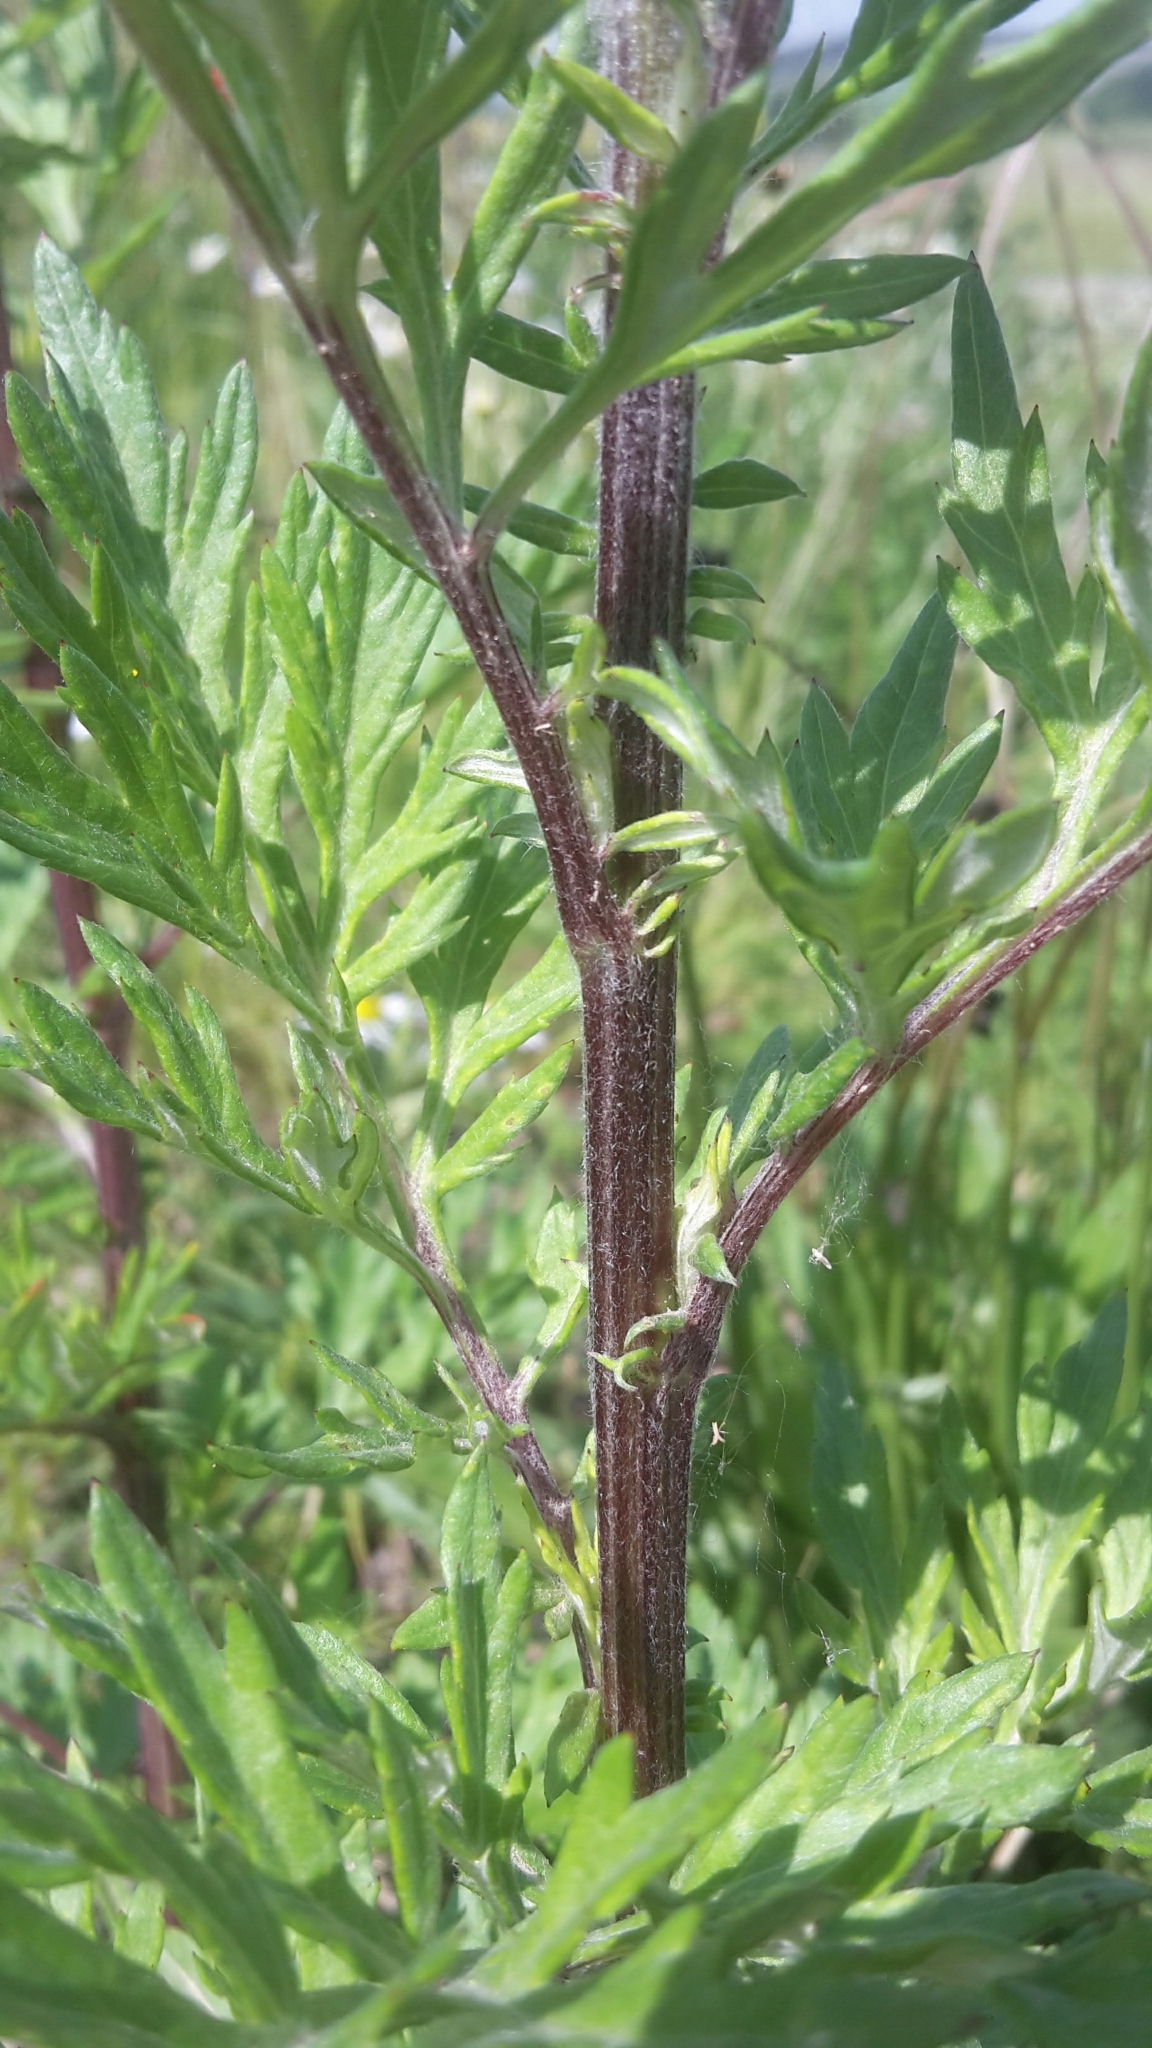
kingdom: Plantae
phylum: Tracheophyta
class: Magnoliopsida
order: Asterales
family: Asteraceae
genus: Artemisia
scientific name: Artemisia vulgaris
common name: Mugwort
